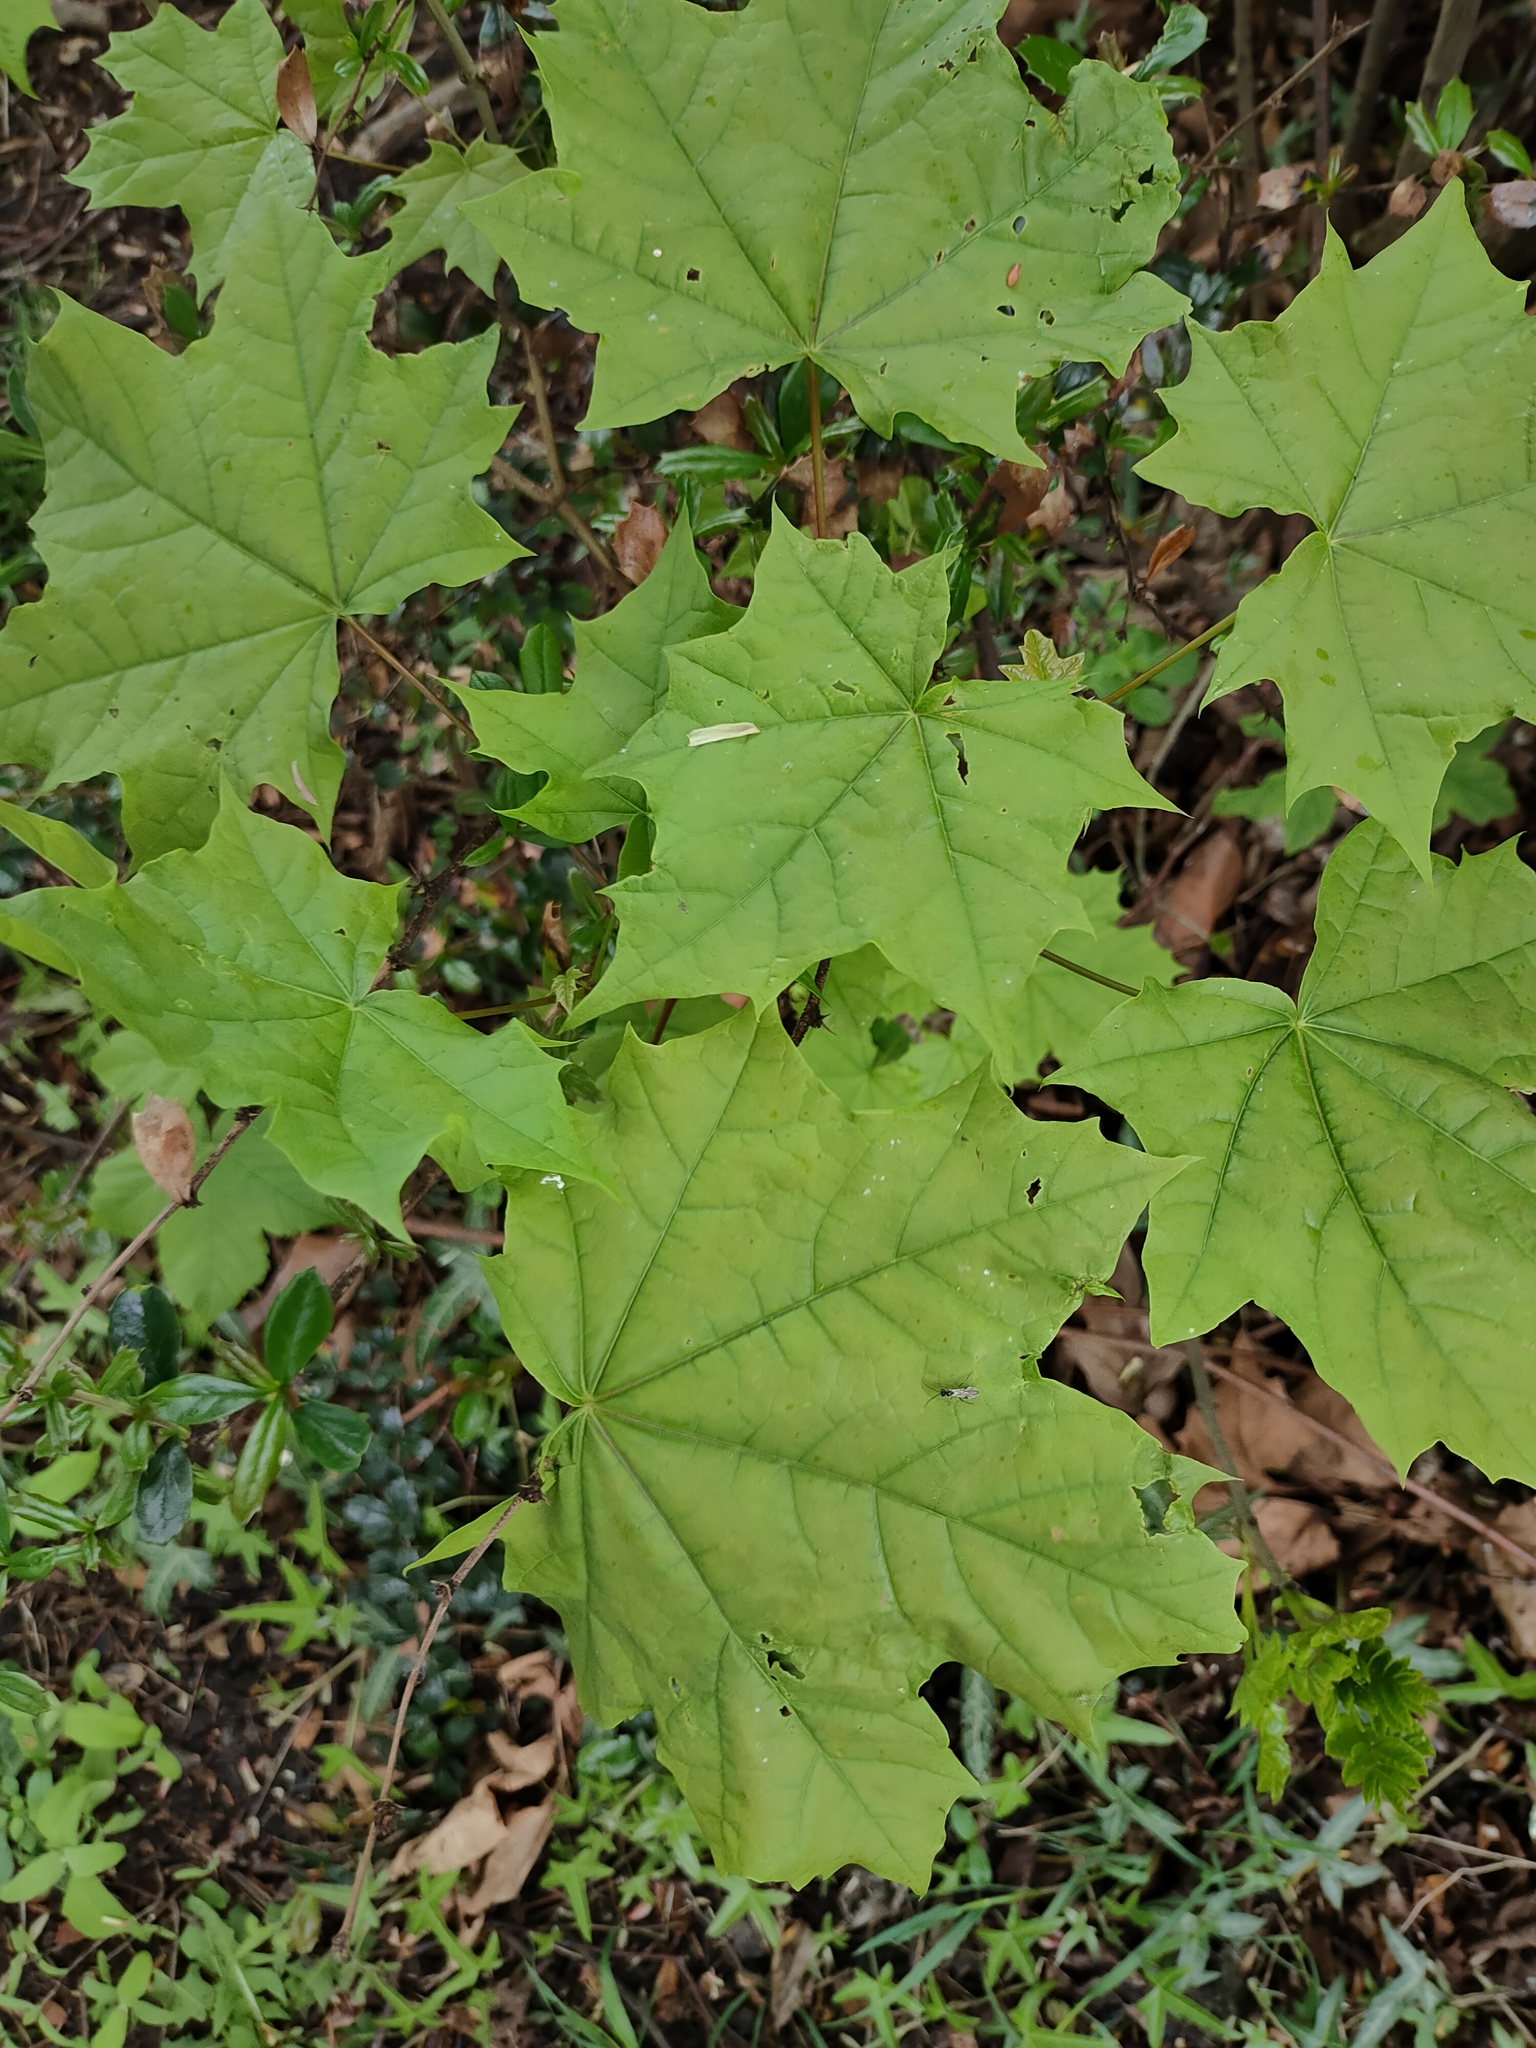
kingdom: Plantae
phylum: Tracheophyta
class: Magnoliopsida
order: Sapindales
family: Sapindaceae
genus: Acer
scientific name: Acer platanoides
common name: Norway maple
